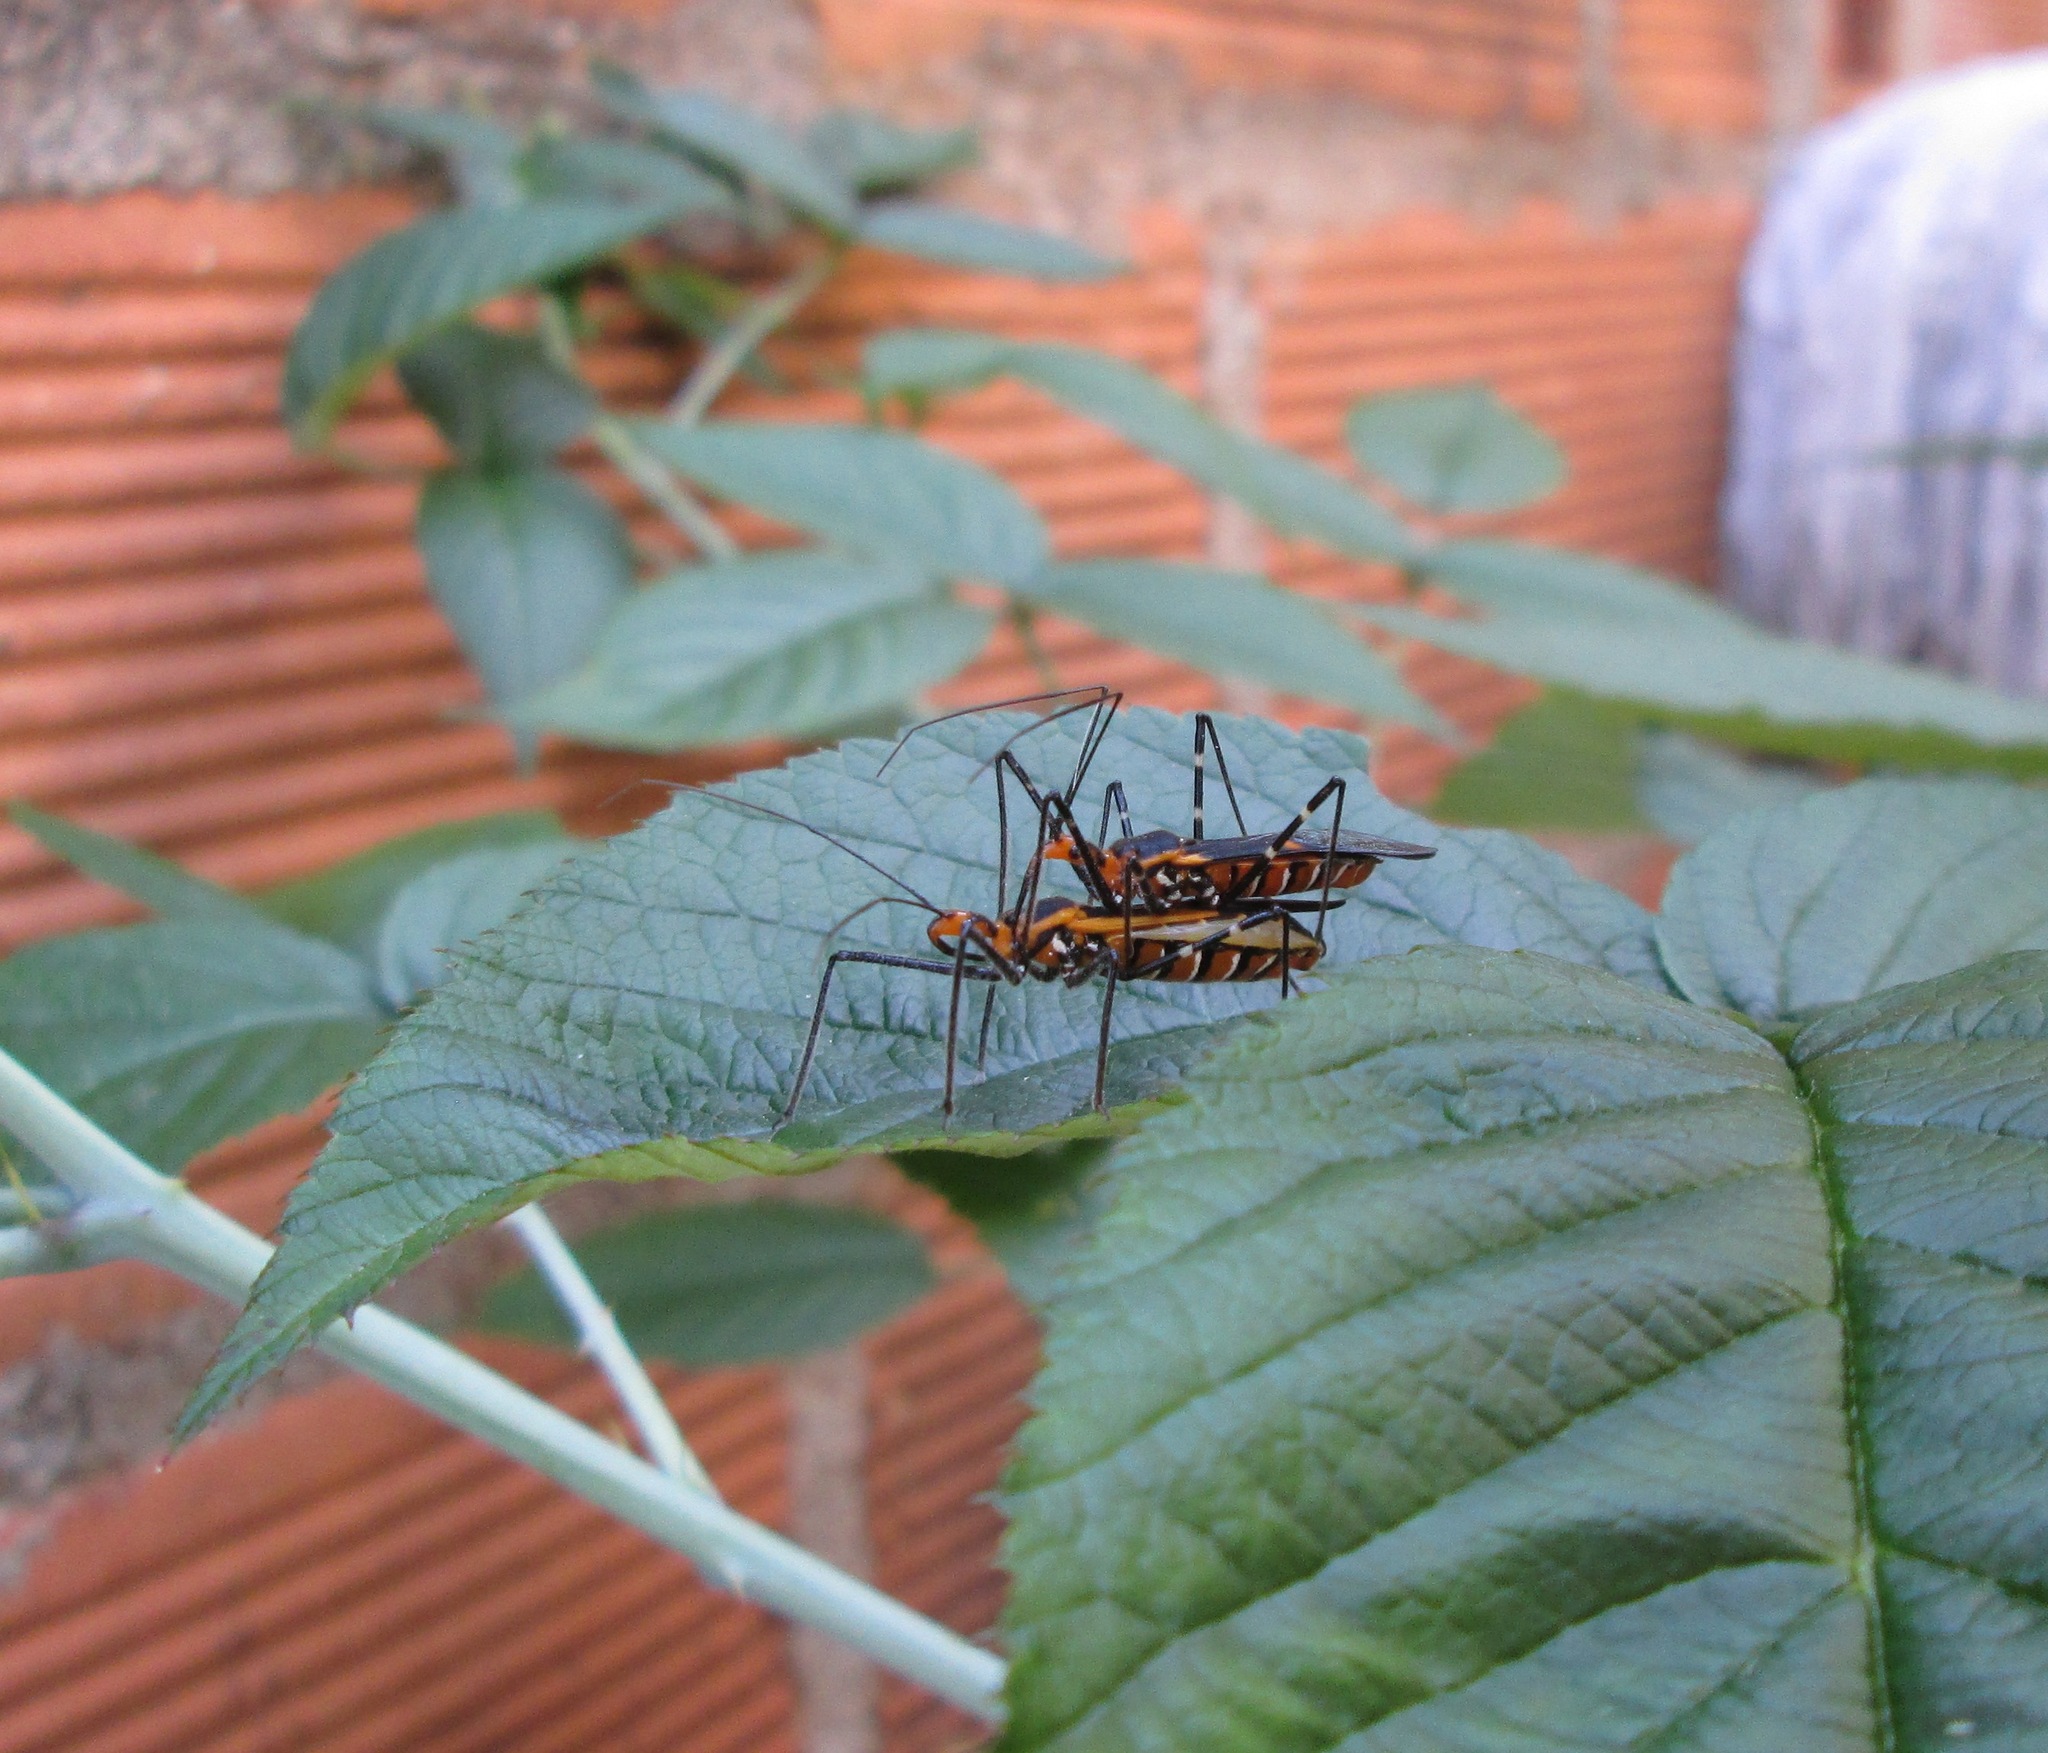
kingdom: Animalia
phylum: Arthropoda
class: Insecta
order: Hemiptera
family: Reduviidae
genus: Zelus
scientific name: Zelus longipes
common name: Milkweed assassin bug
